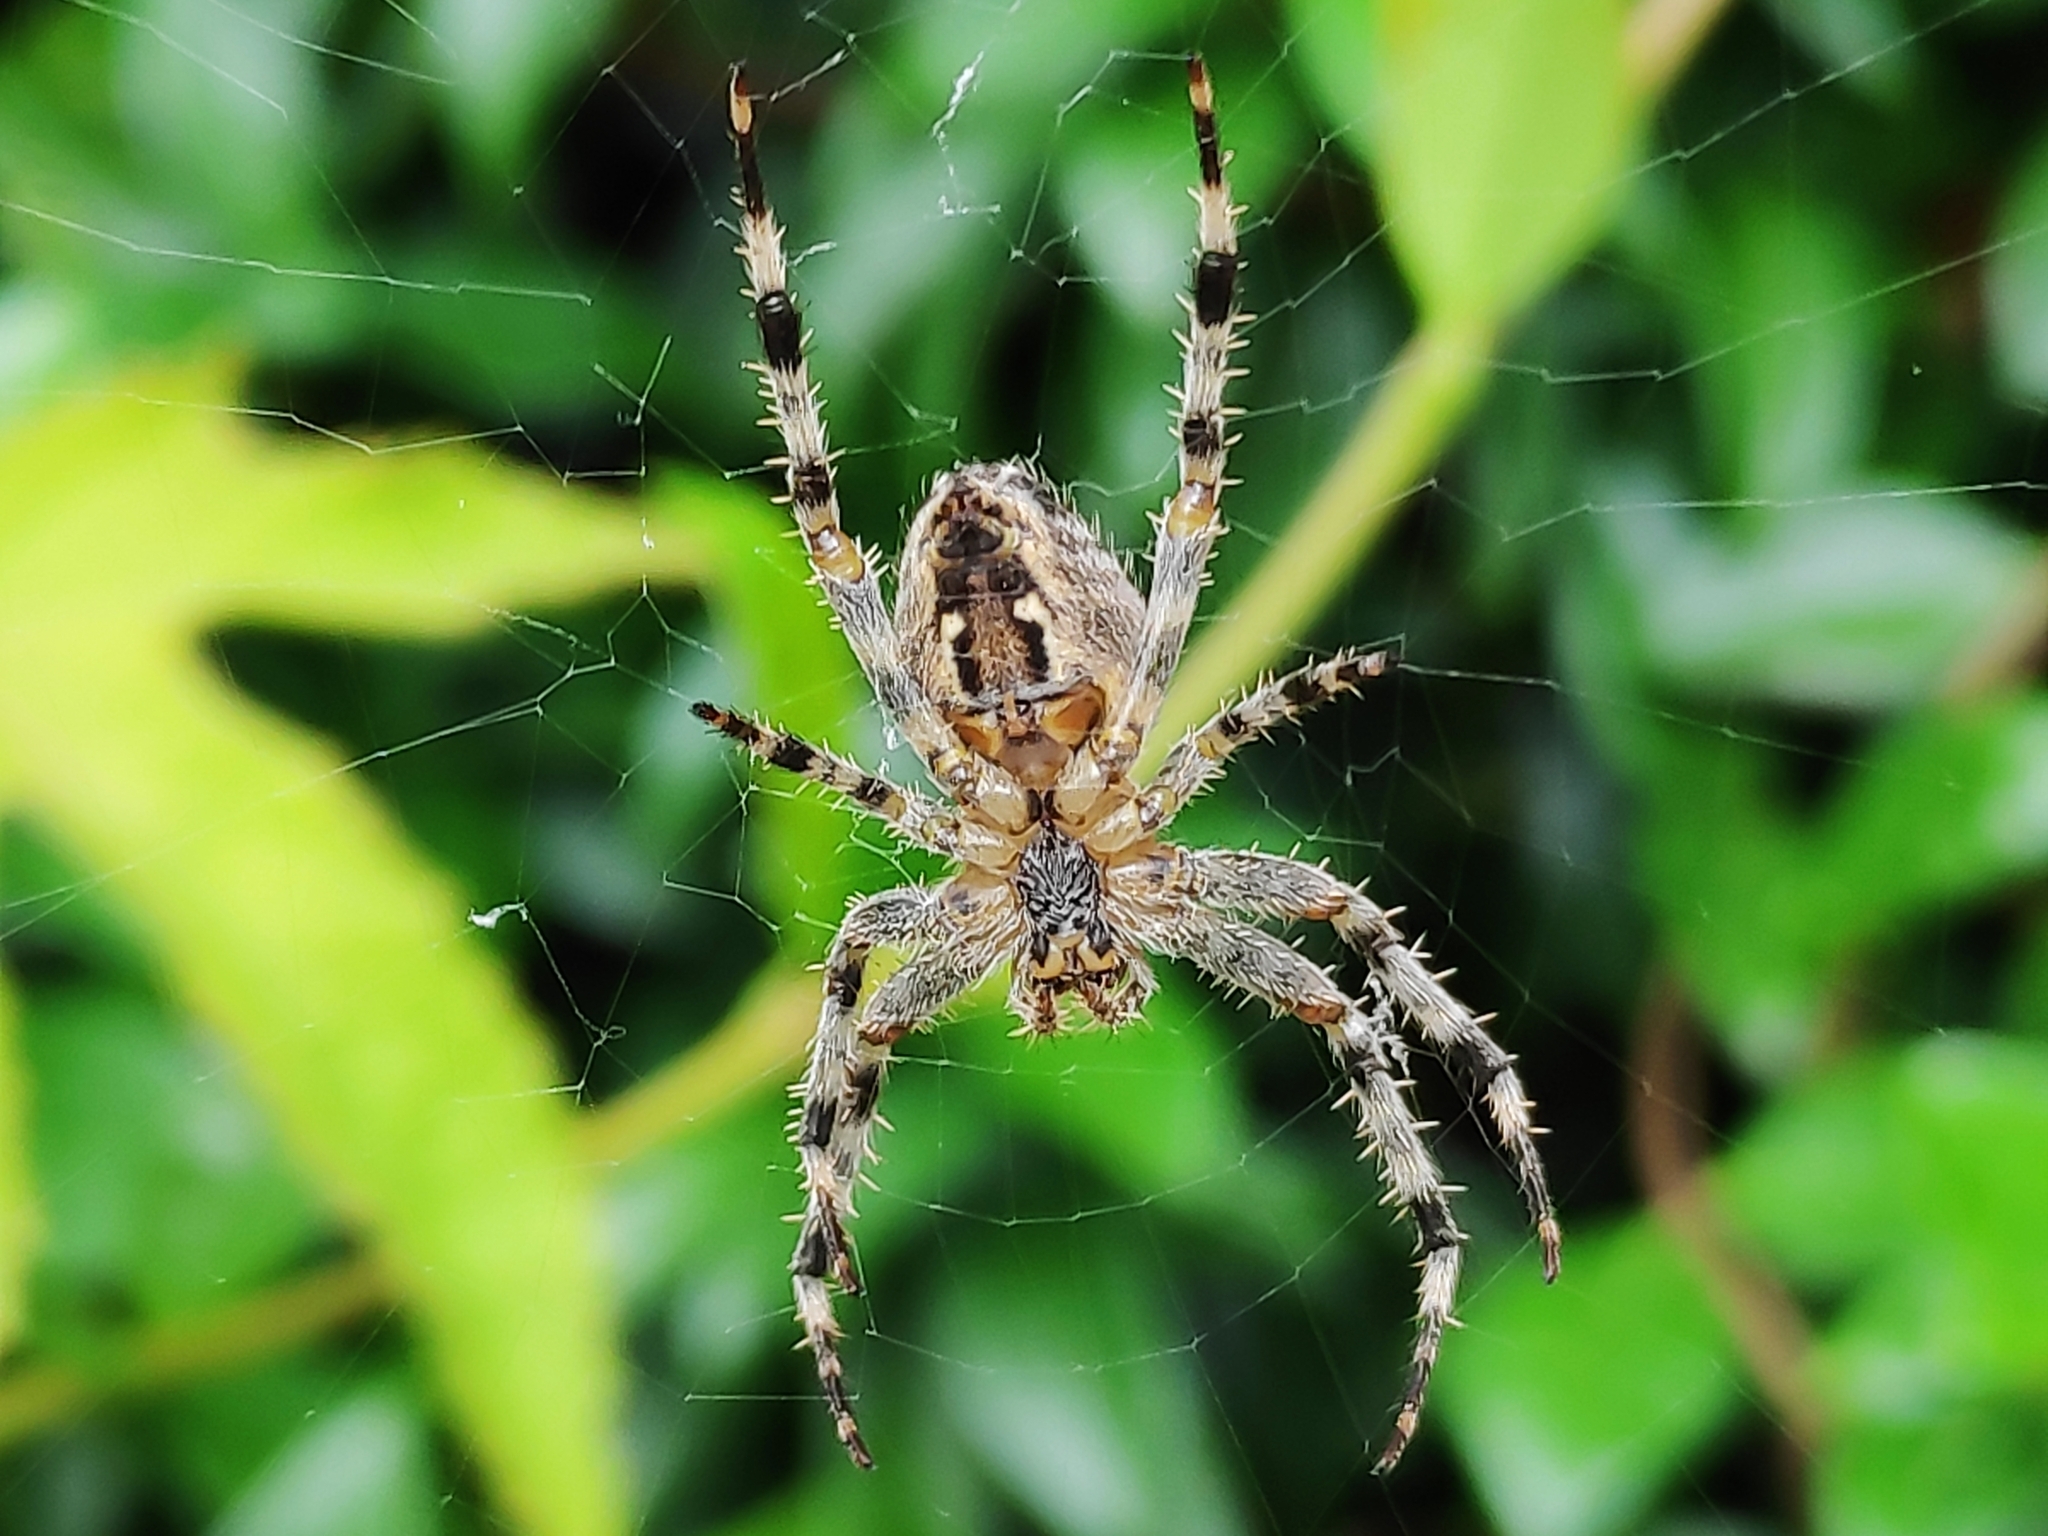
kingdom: Animalia
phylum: Arthropoda
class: Arachnida
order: Araneae
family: Araneidae
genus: Araneus
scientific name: Araneus diadematus
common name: Cross orbweaver
